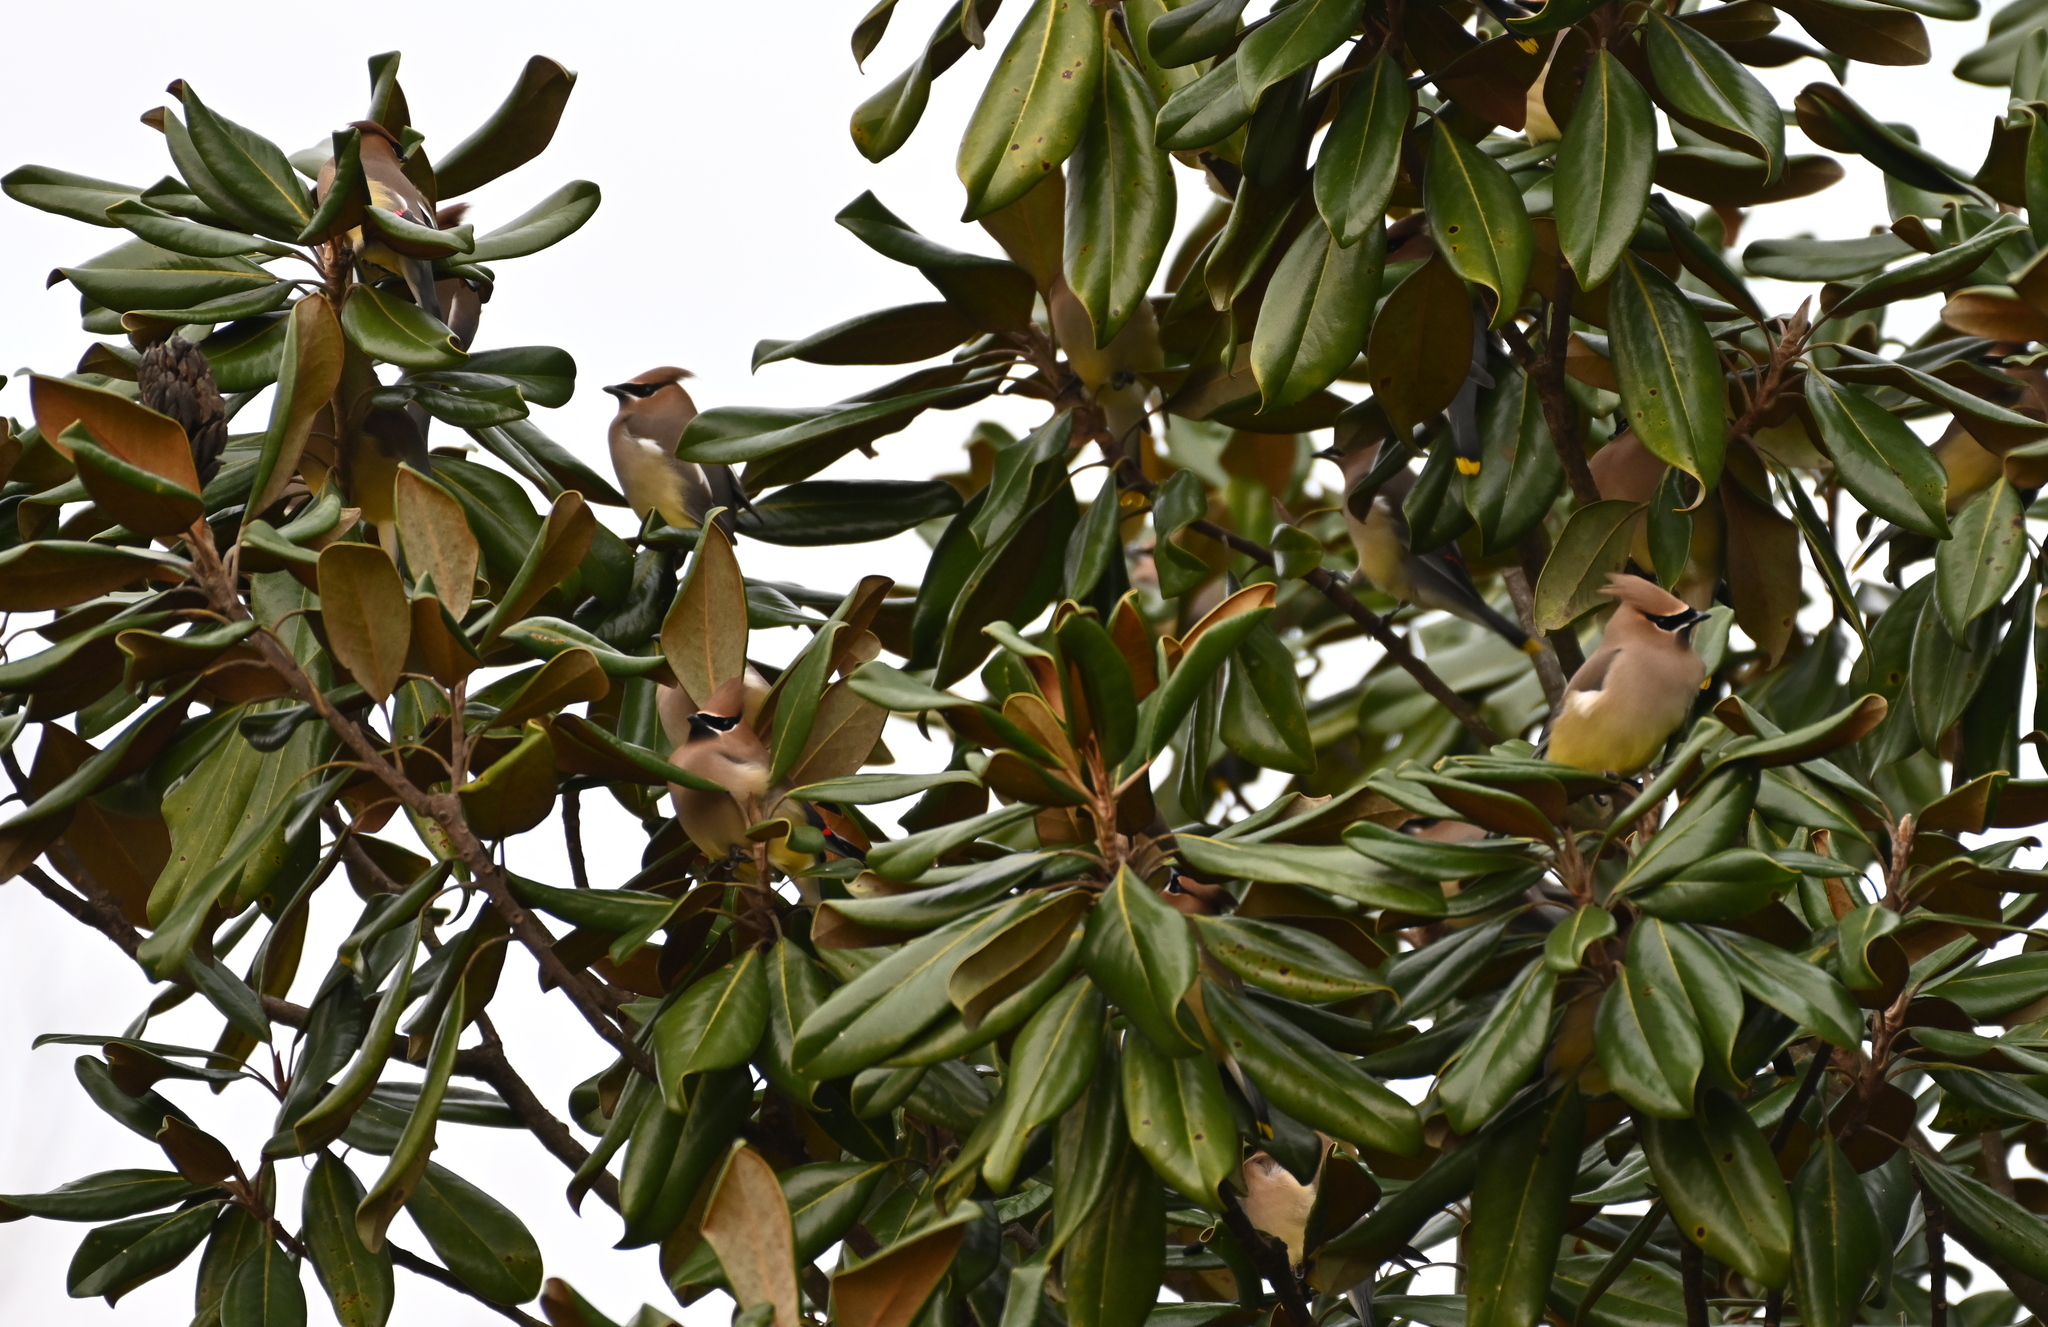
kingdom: Animalia
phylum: Chordata
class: Aves
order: Passeriformes
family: Bombycillidae
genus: Bombycilla
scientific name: Bombycilla cedrorum
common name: Cedar waxwing
